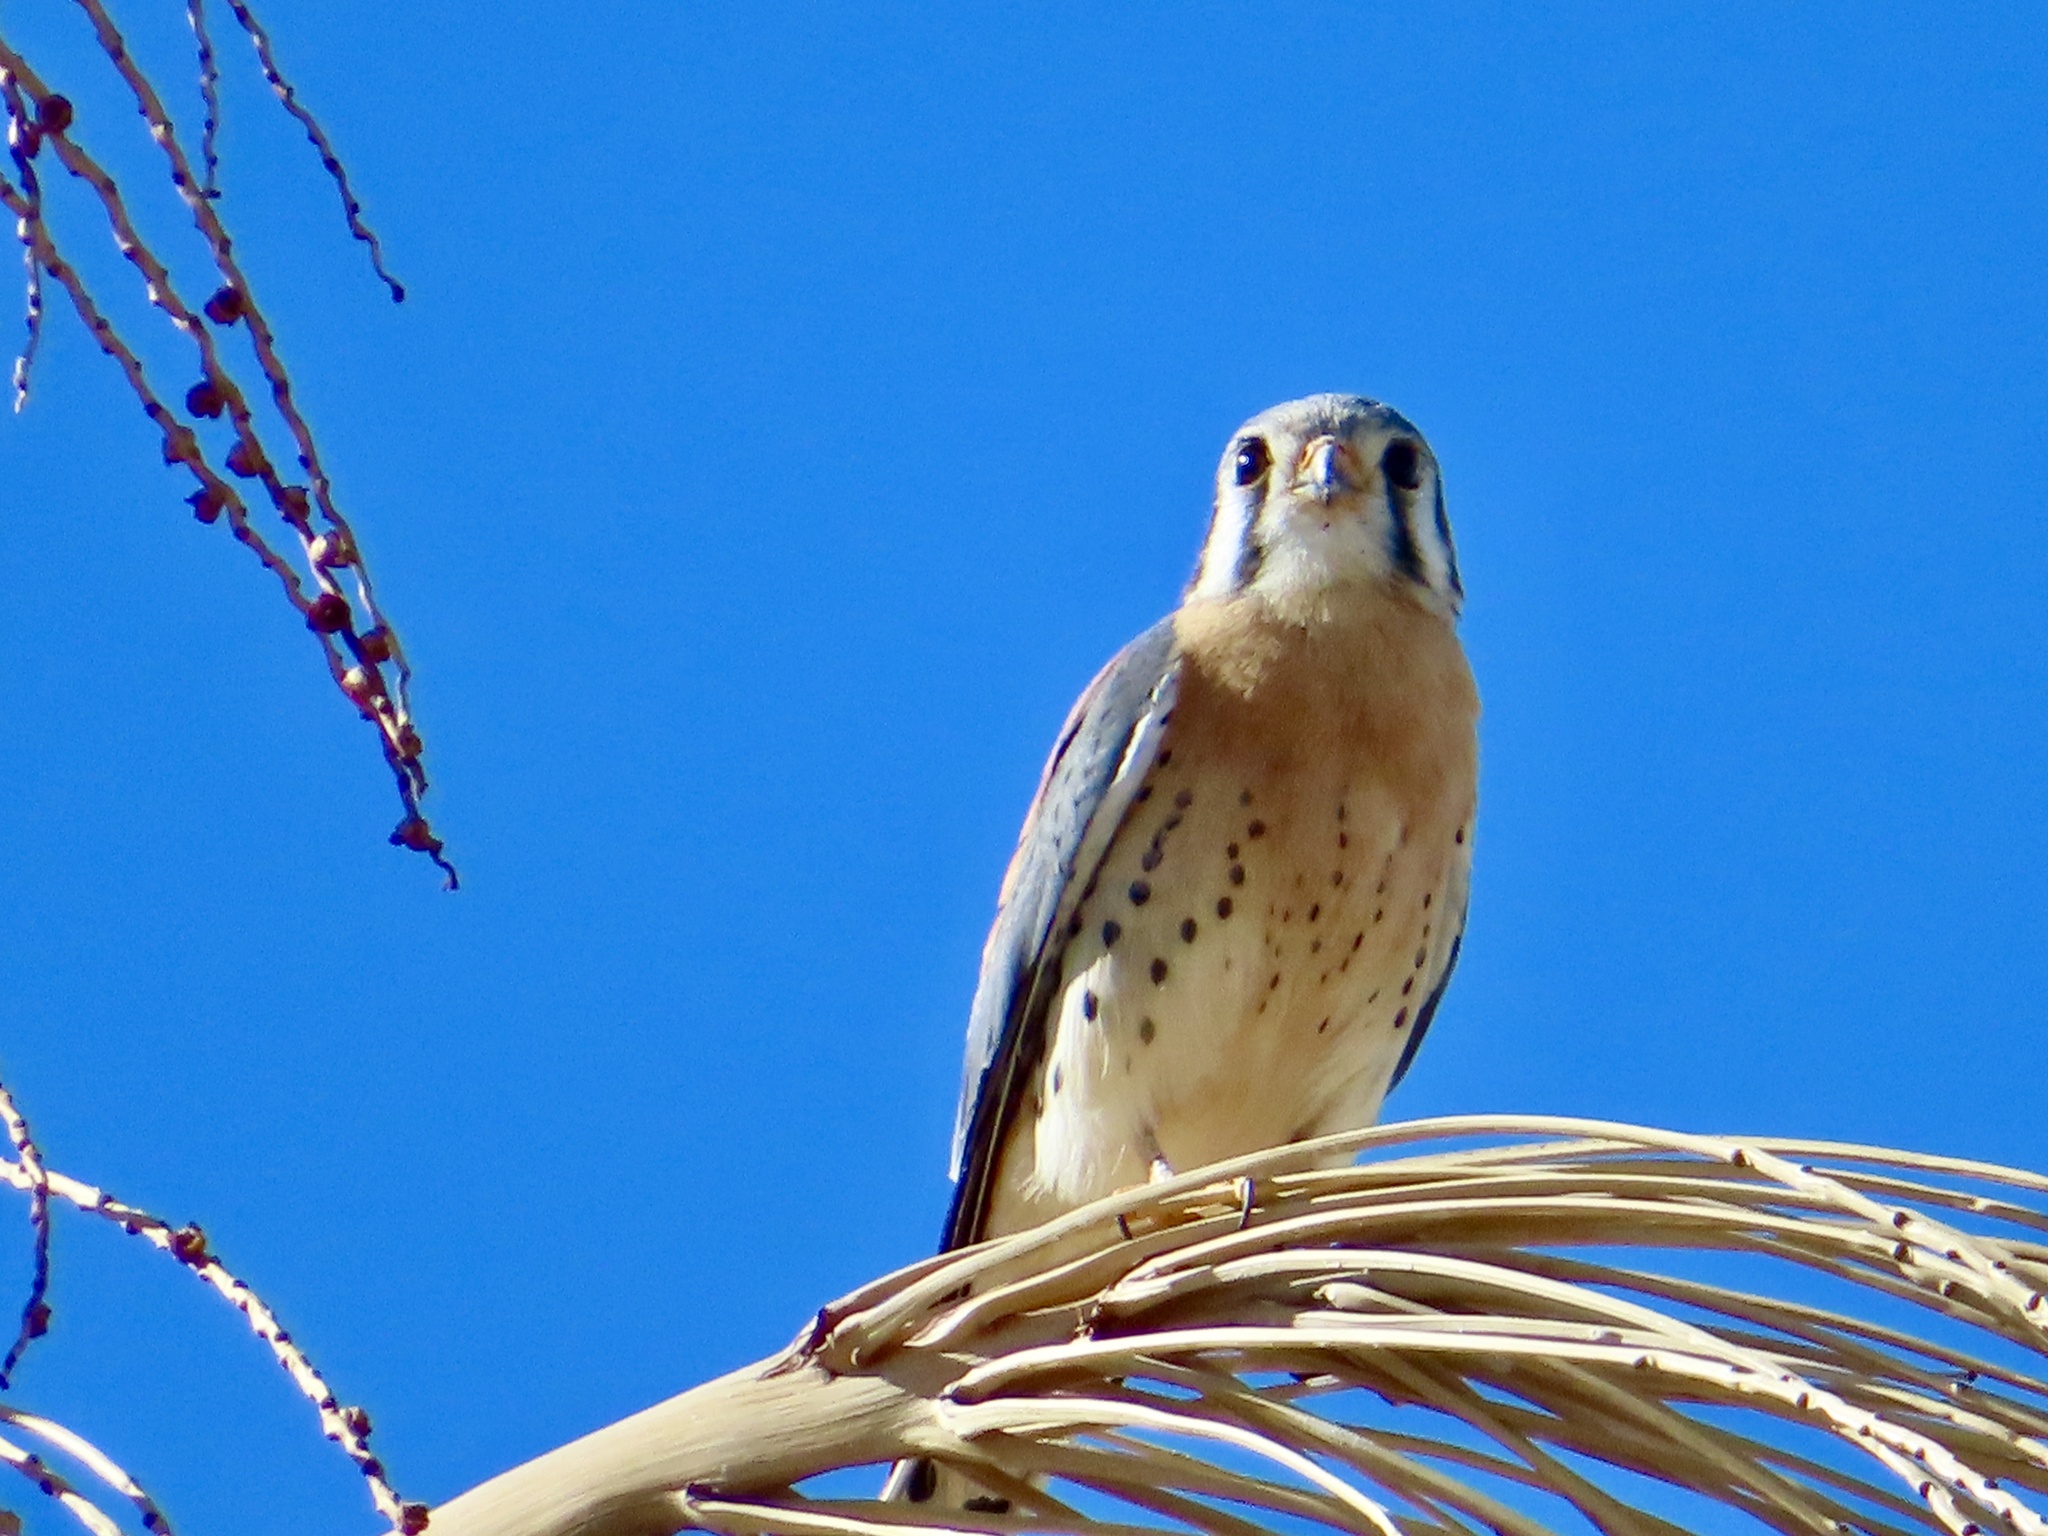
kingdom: Animalia
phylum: Chordata
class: Aves
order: Falconiformes
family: Falconidae
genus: Falco
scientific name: Falco sparverius
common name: American kestrel
